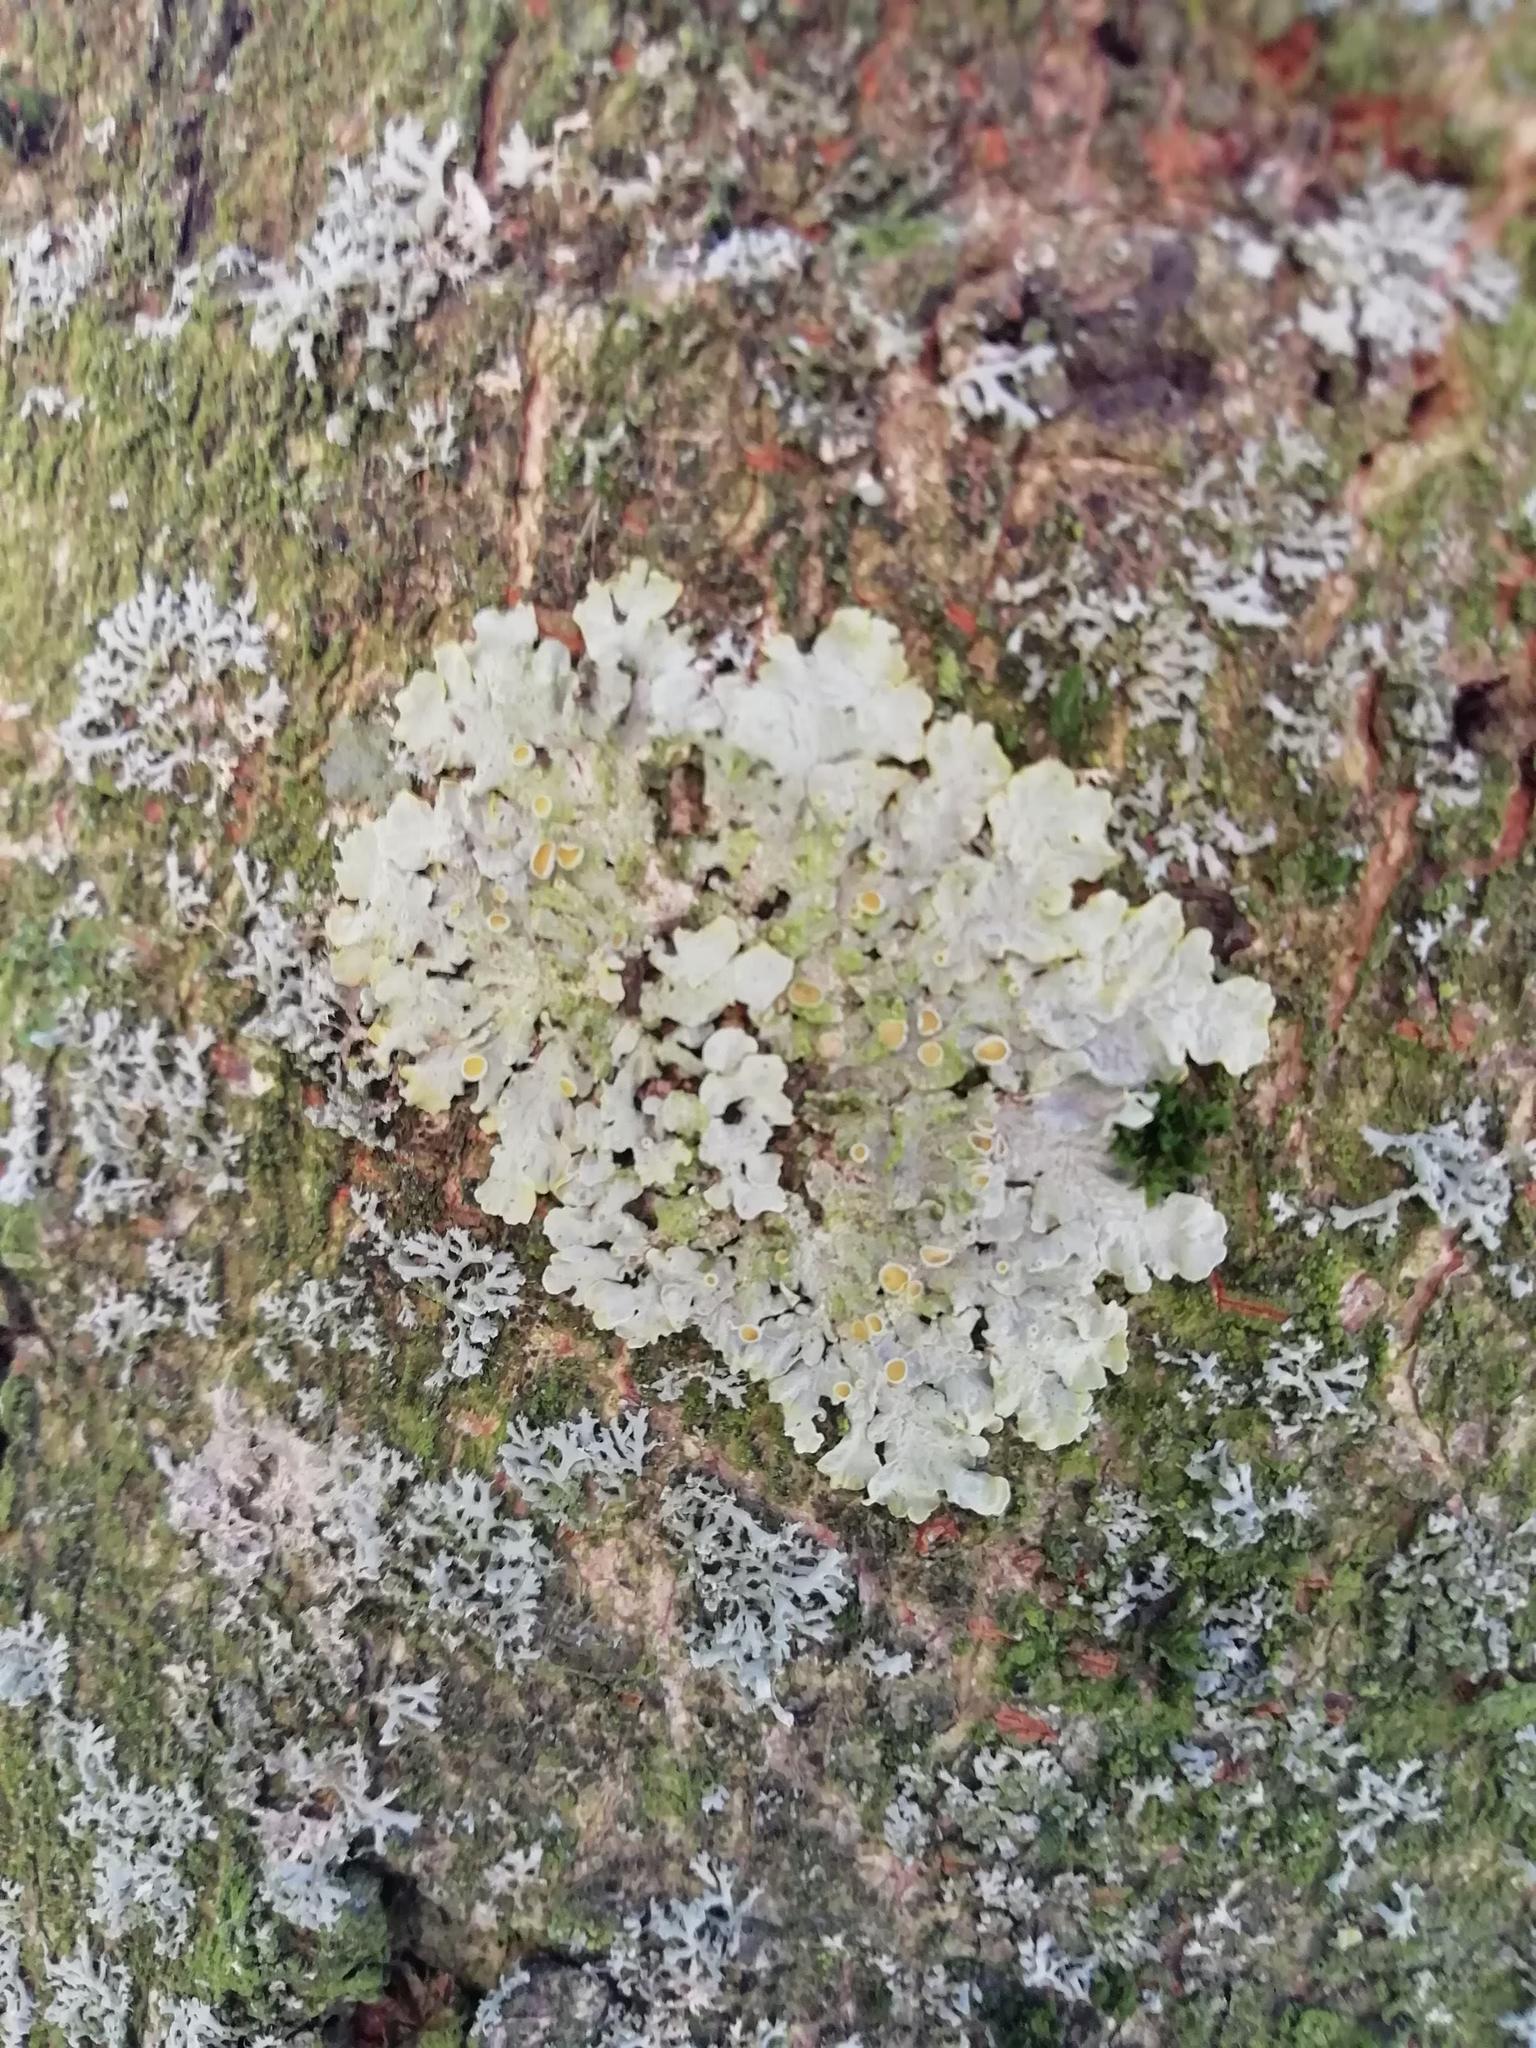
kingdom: Fungi
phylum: Ascomycota
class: Lecanoromycetes
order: Teloschistales
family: Teloschistaceae
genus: Xanthoria
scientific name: Xanthoria parietina
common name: Common orange lichen
